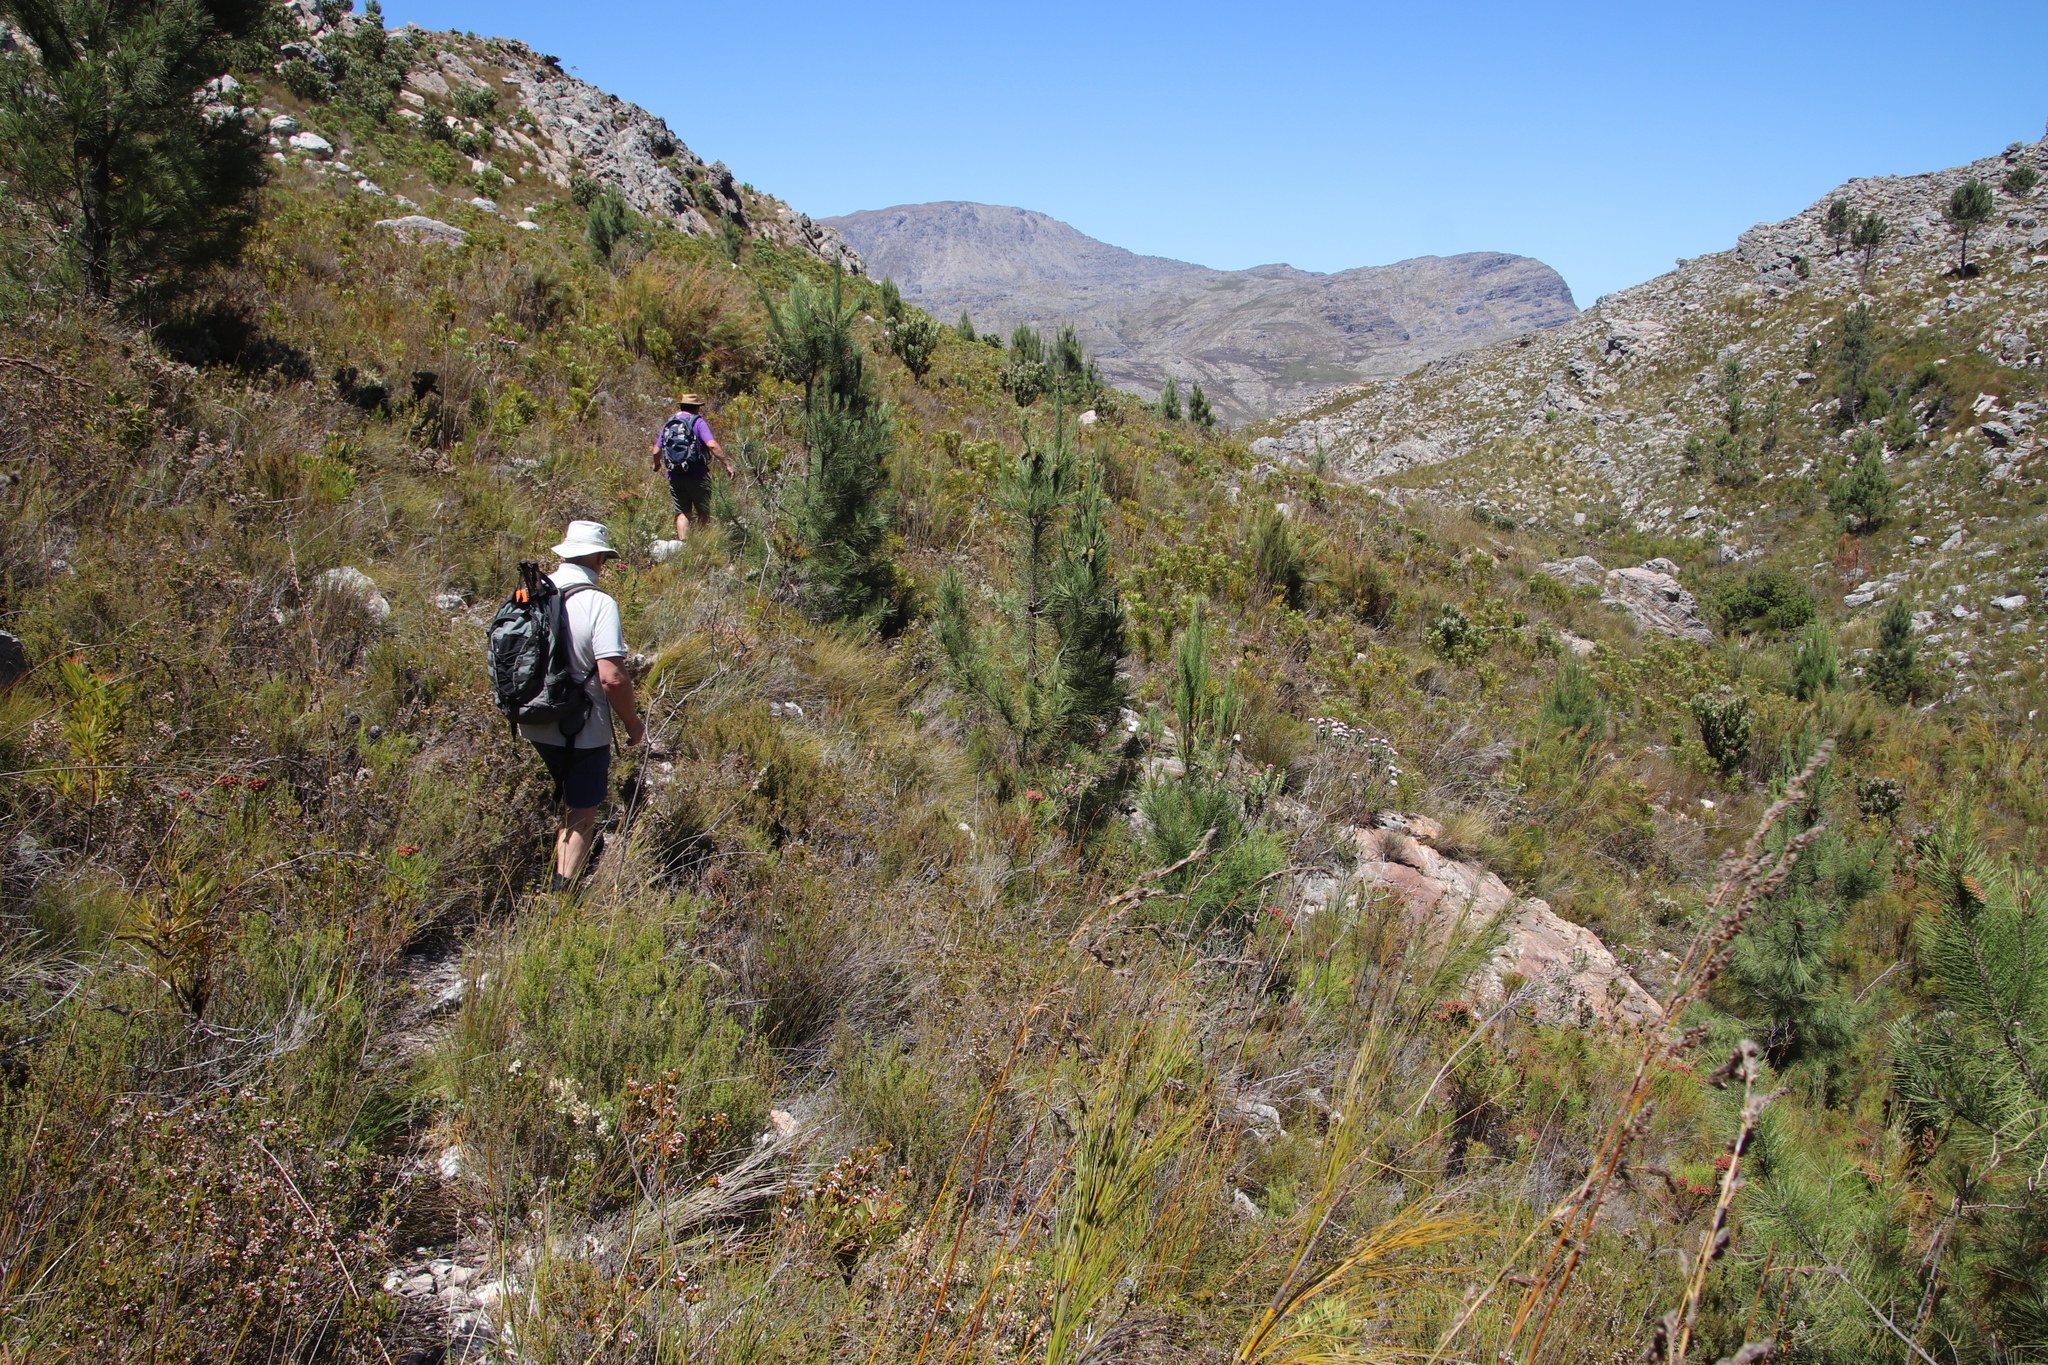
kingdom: Plantae
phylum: Tracheophyta
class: Pinopsida
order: Pinales
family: Pinaceae
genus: Pinus
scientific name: Pinus pinaster
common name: Maritime pine
